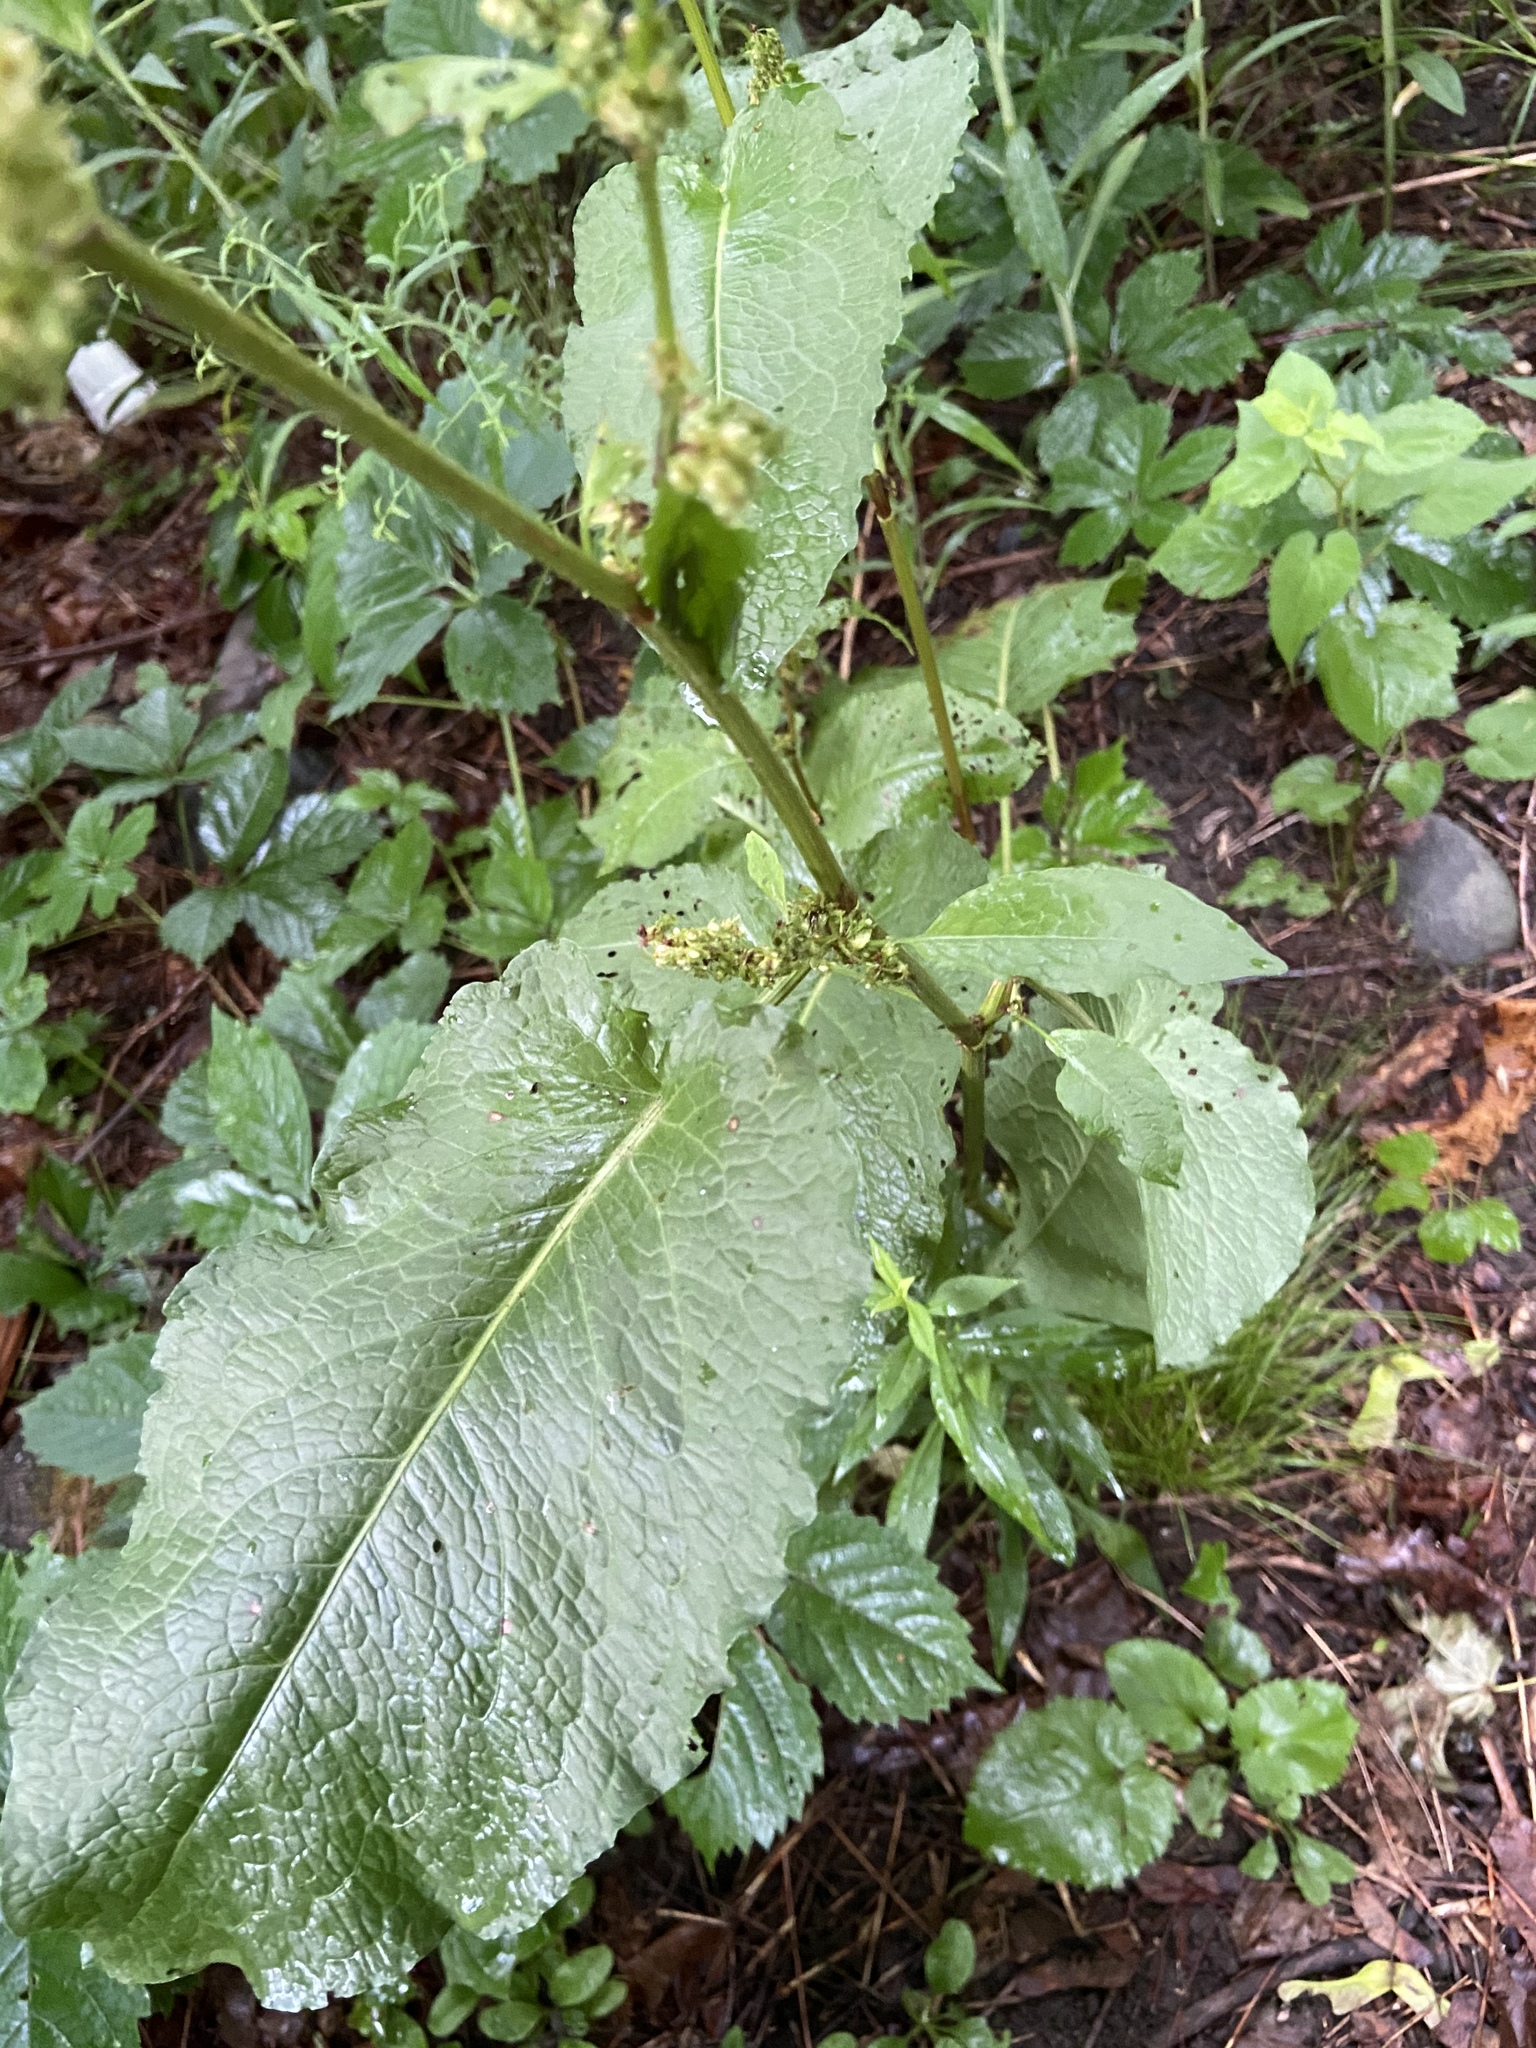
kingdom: Plantae
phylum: Tracheophyta
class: Magnoliopsida
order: Caryophyllales
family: Polygonaceae
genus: Rumex
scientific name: Rumex obtusifolius
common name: Bitter dock
